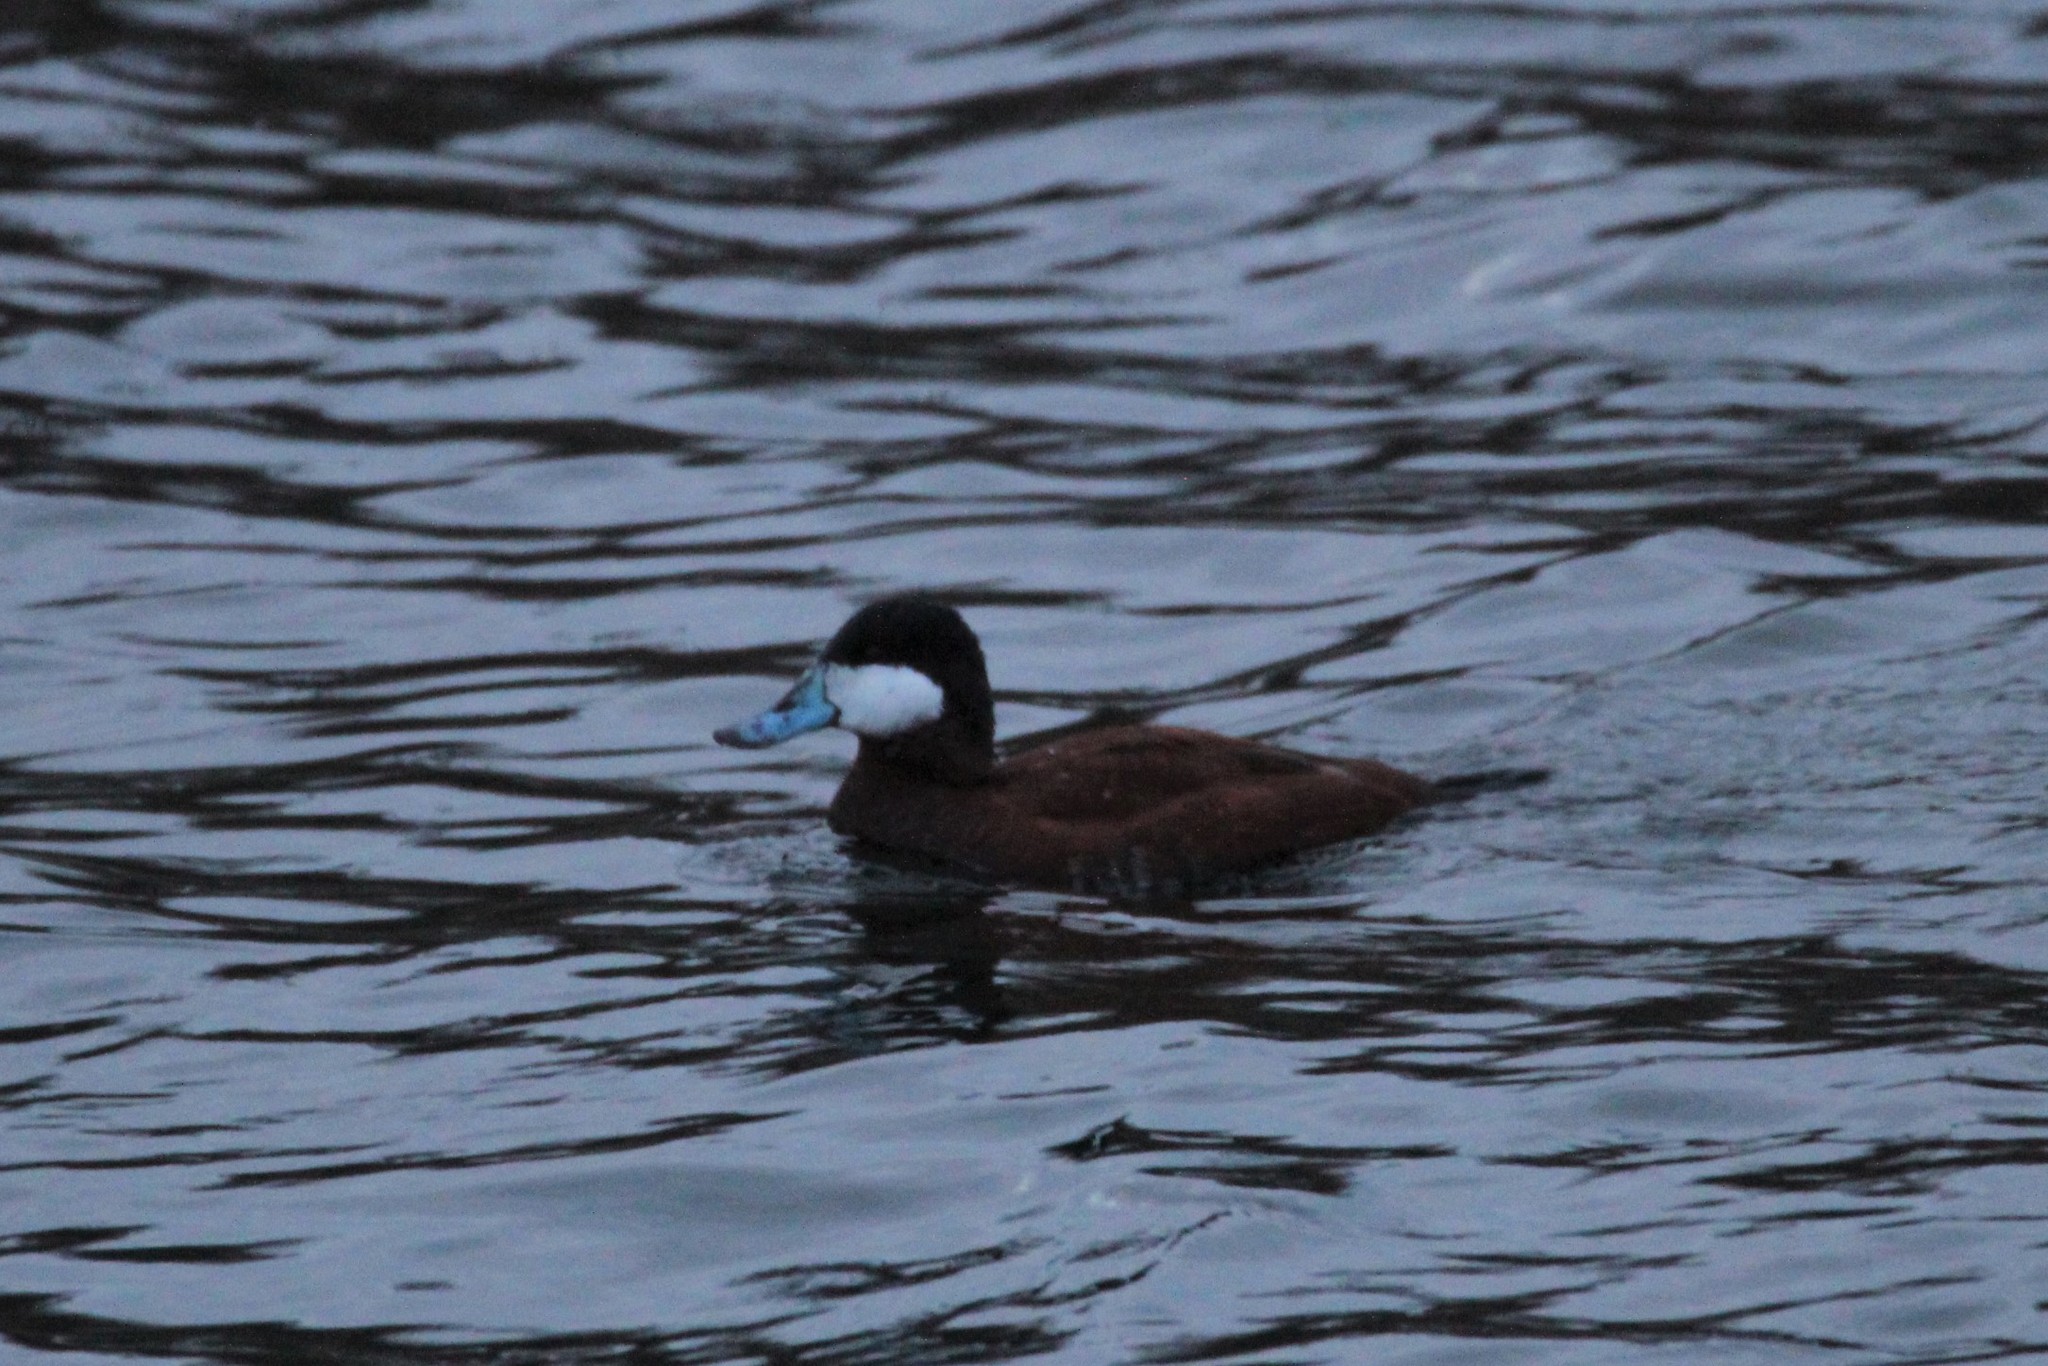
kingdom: Animalia
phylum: Chordata
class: Aves
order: Anseriformes
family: Anatidae
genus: Oxyura
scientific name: Oxyura jamaicensis
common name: Ruddy duck
